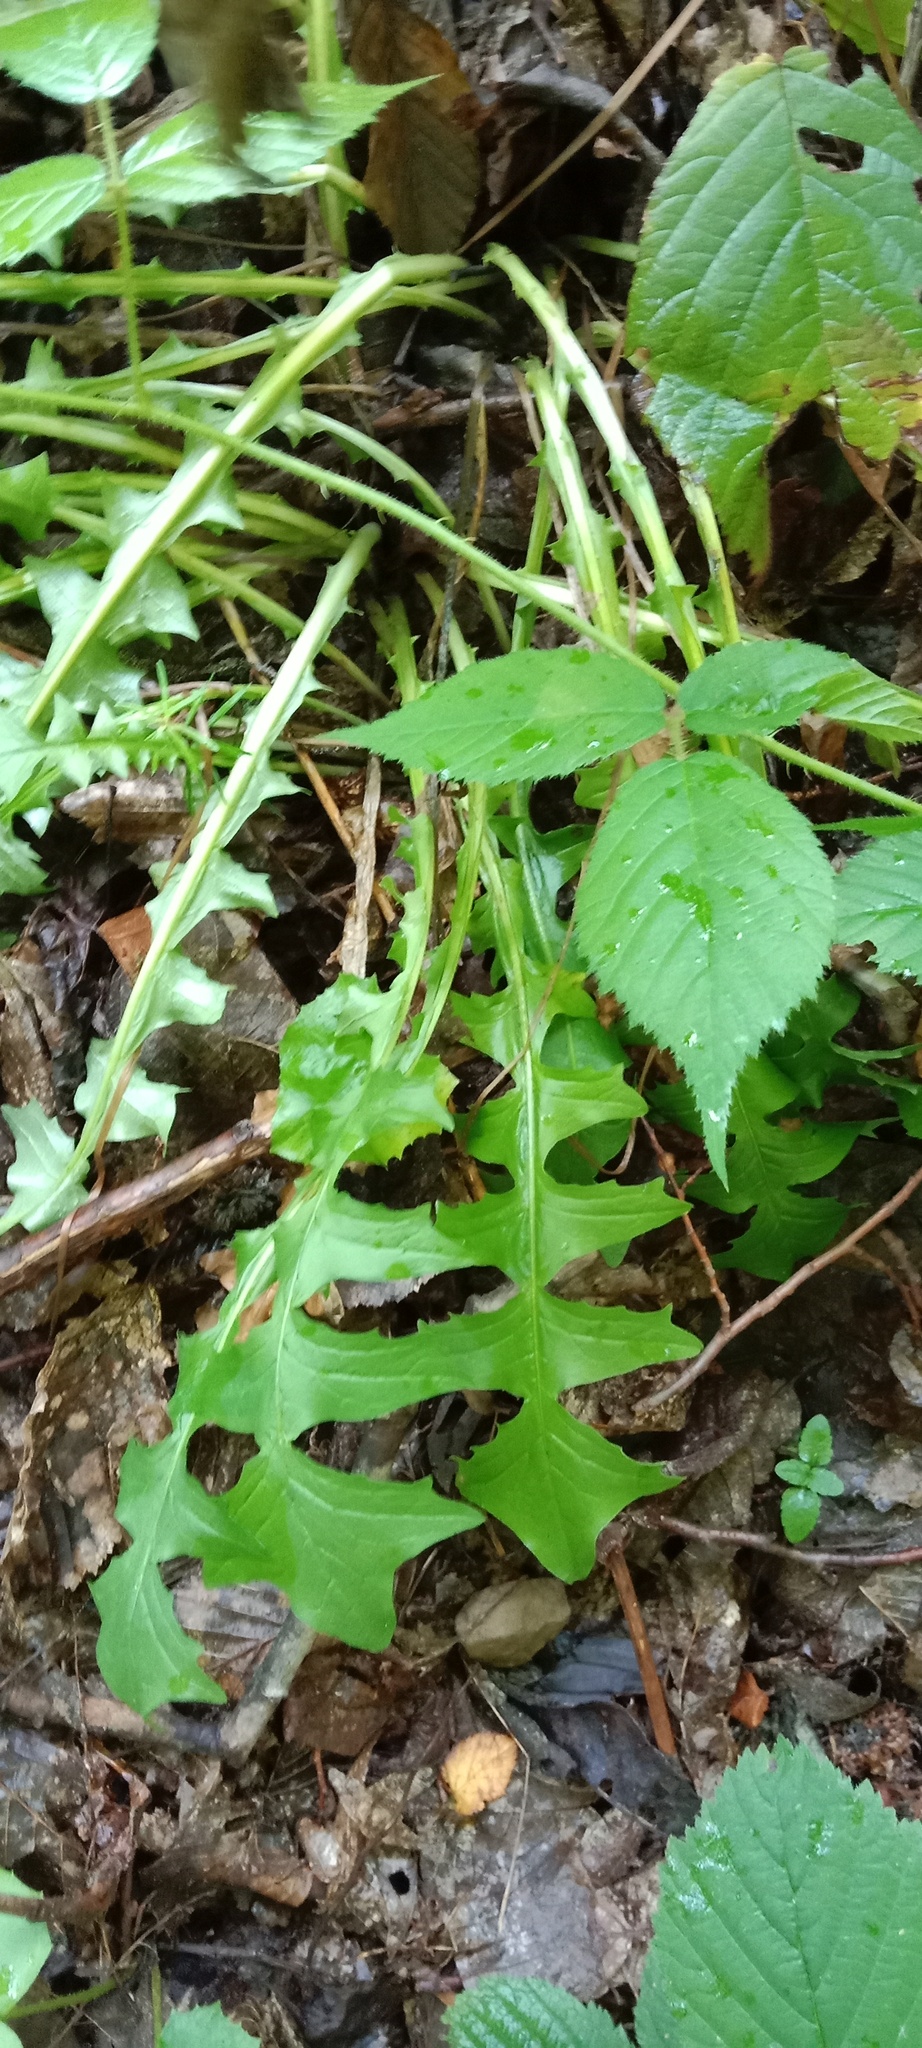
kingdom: Plantae
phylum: Tracheophyta
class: Magnoliopsida
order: Asterales
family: Asteraceae
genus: Aposeris
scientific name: Aposeris foetida
